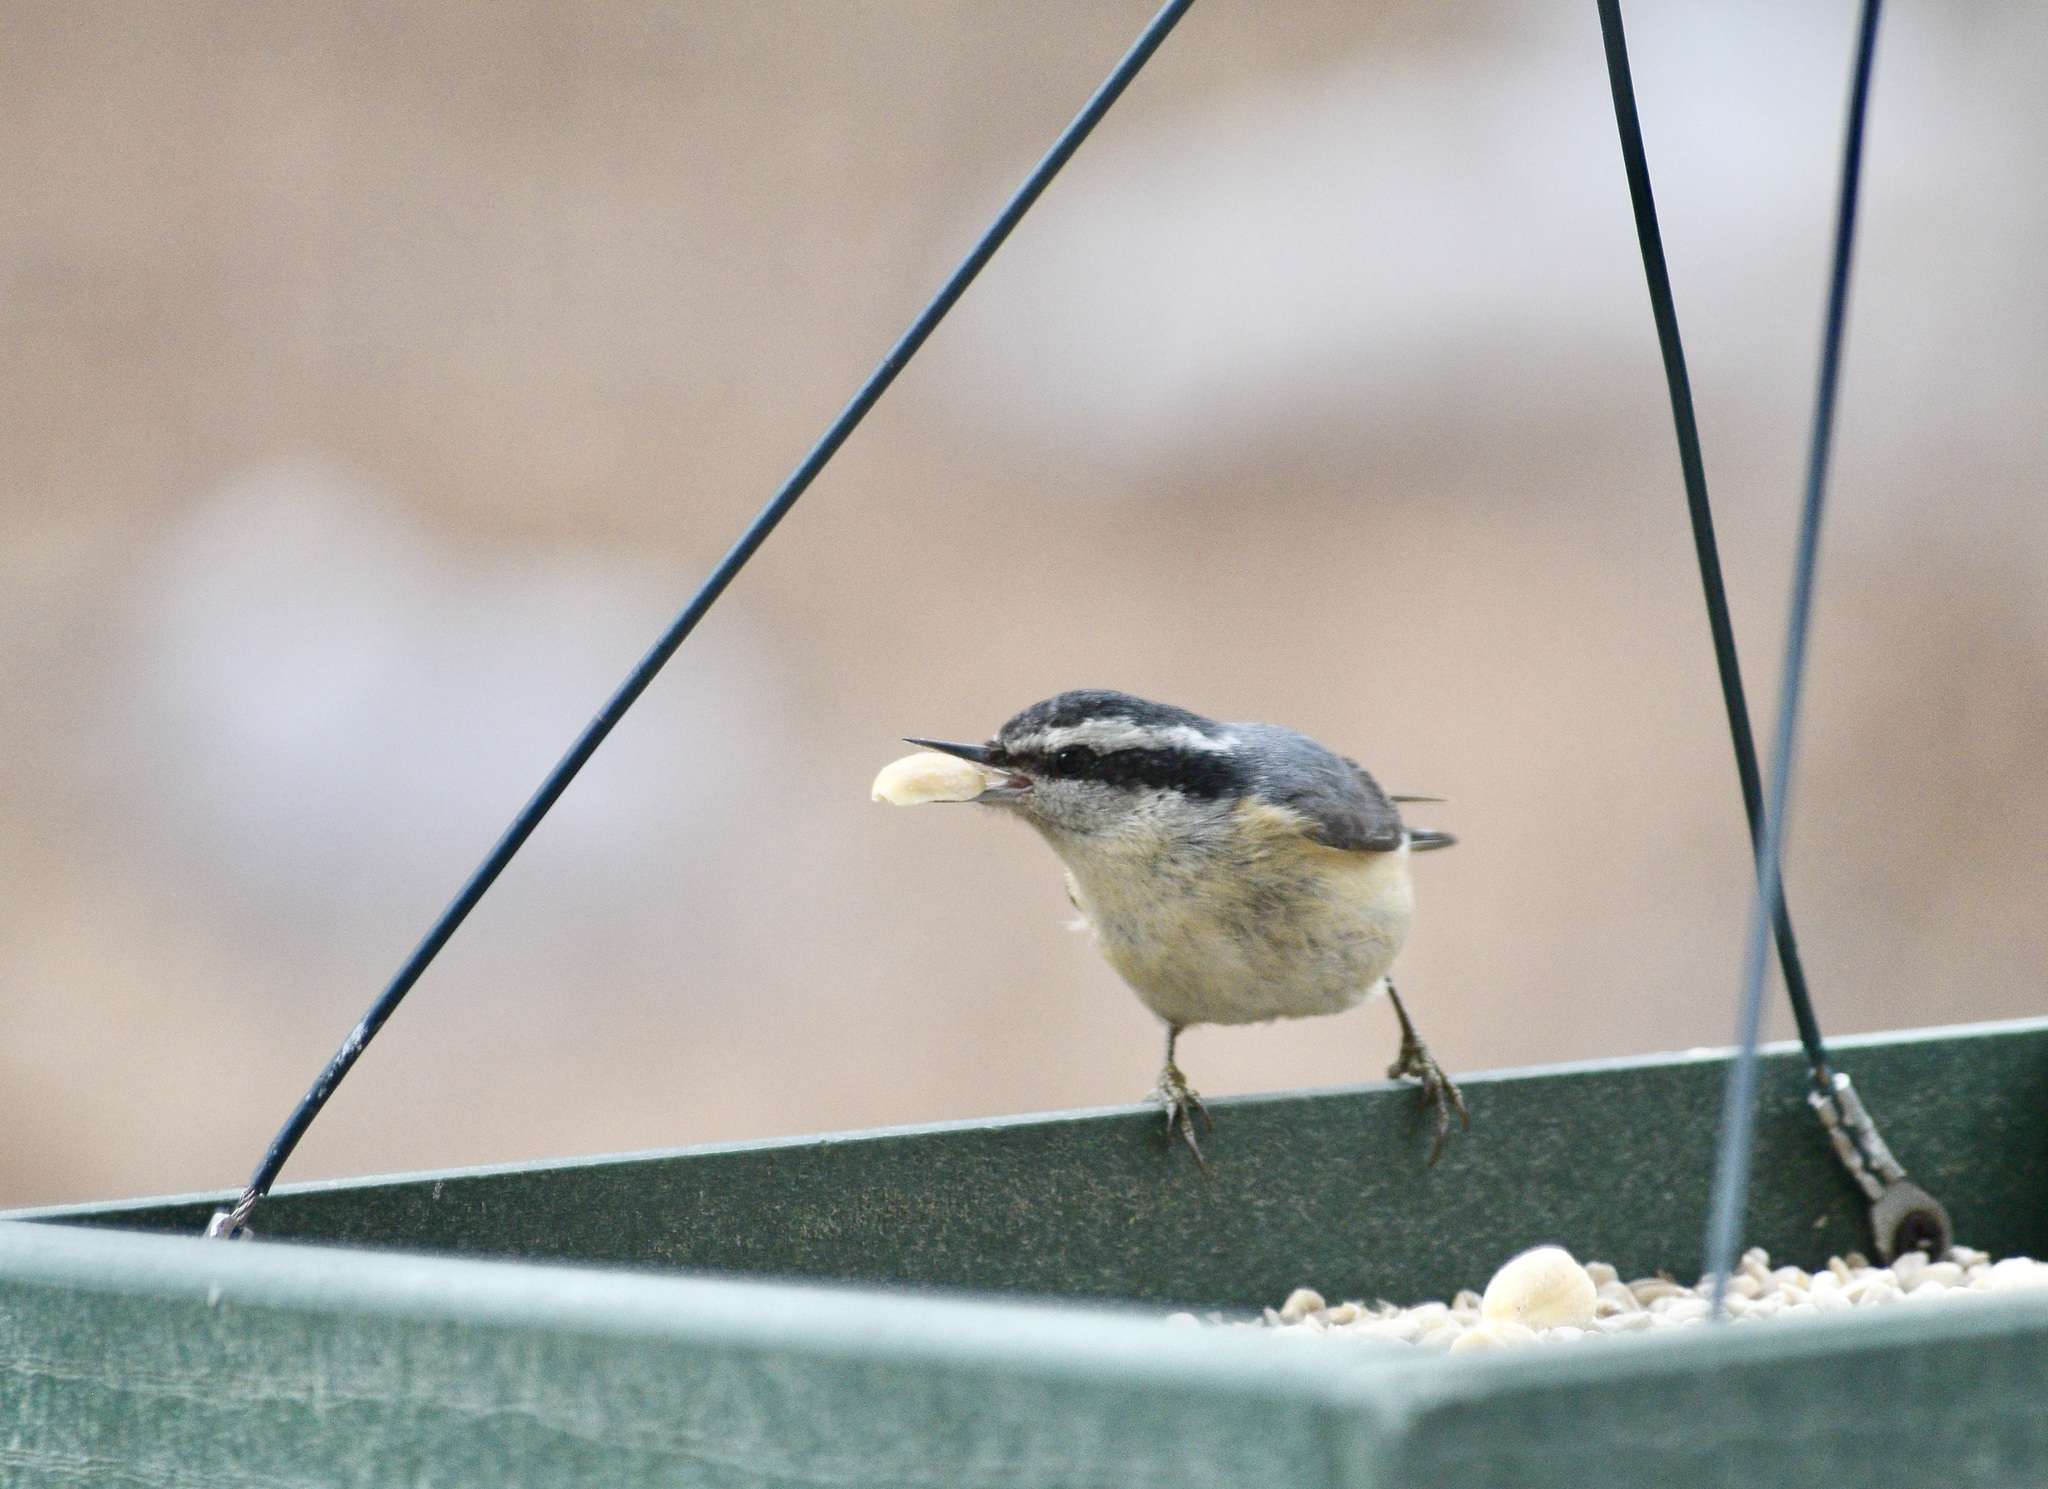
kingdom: Animalia
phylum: Chordata
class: Aves
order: Passeriformes
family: Sittidae
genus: Sitta
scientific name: Sitta canadensis
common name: Red-breasted nuthatch
